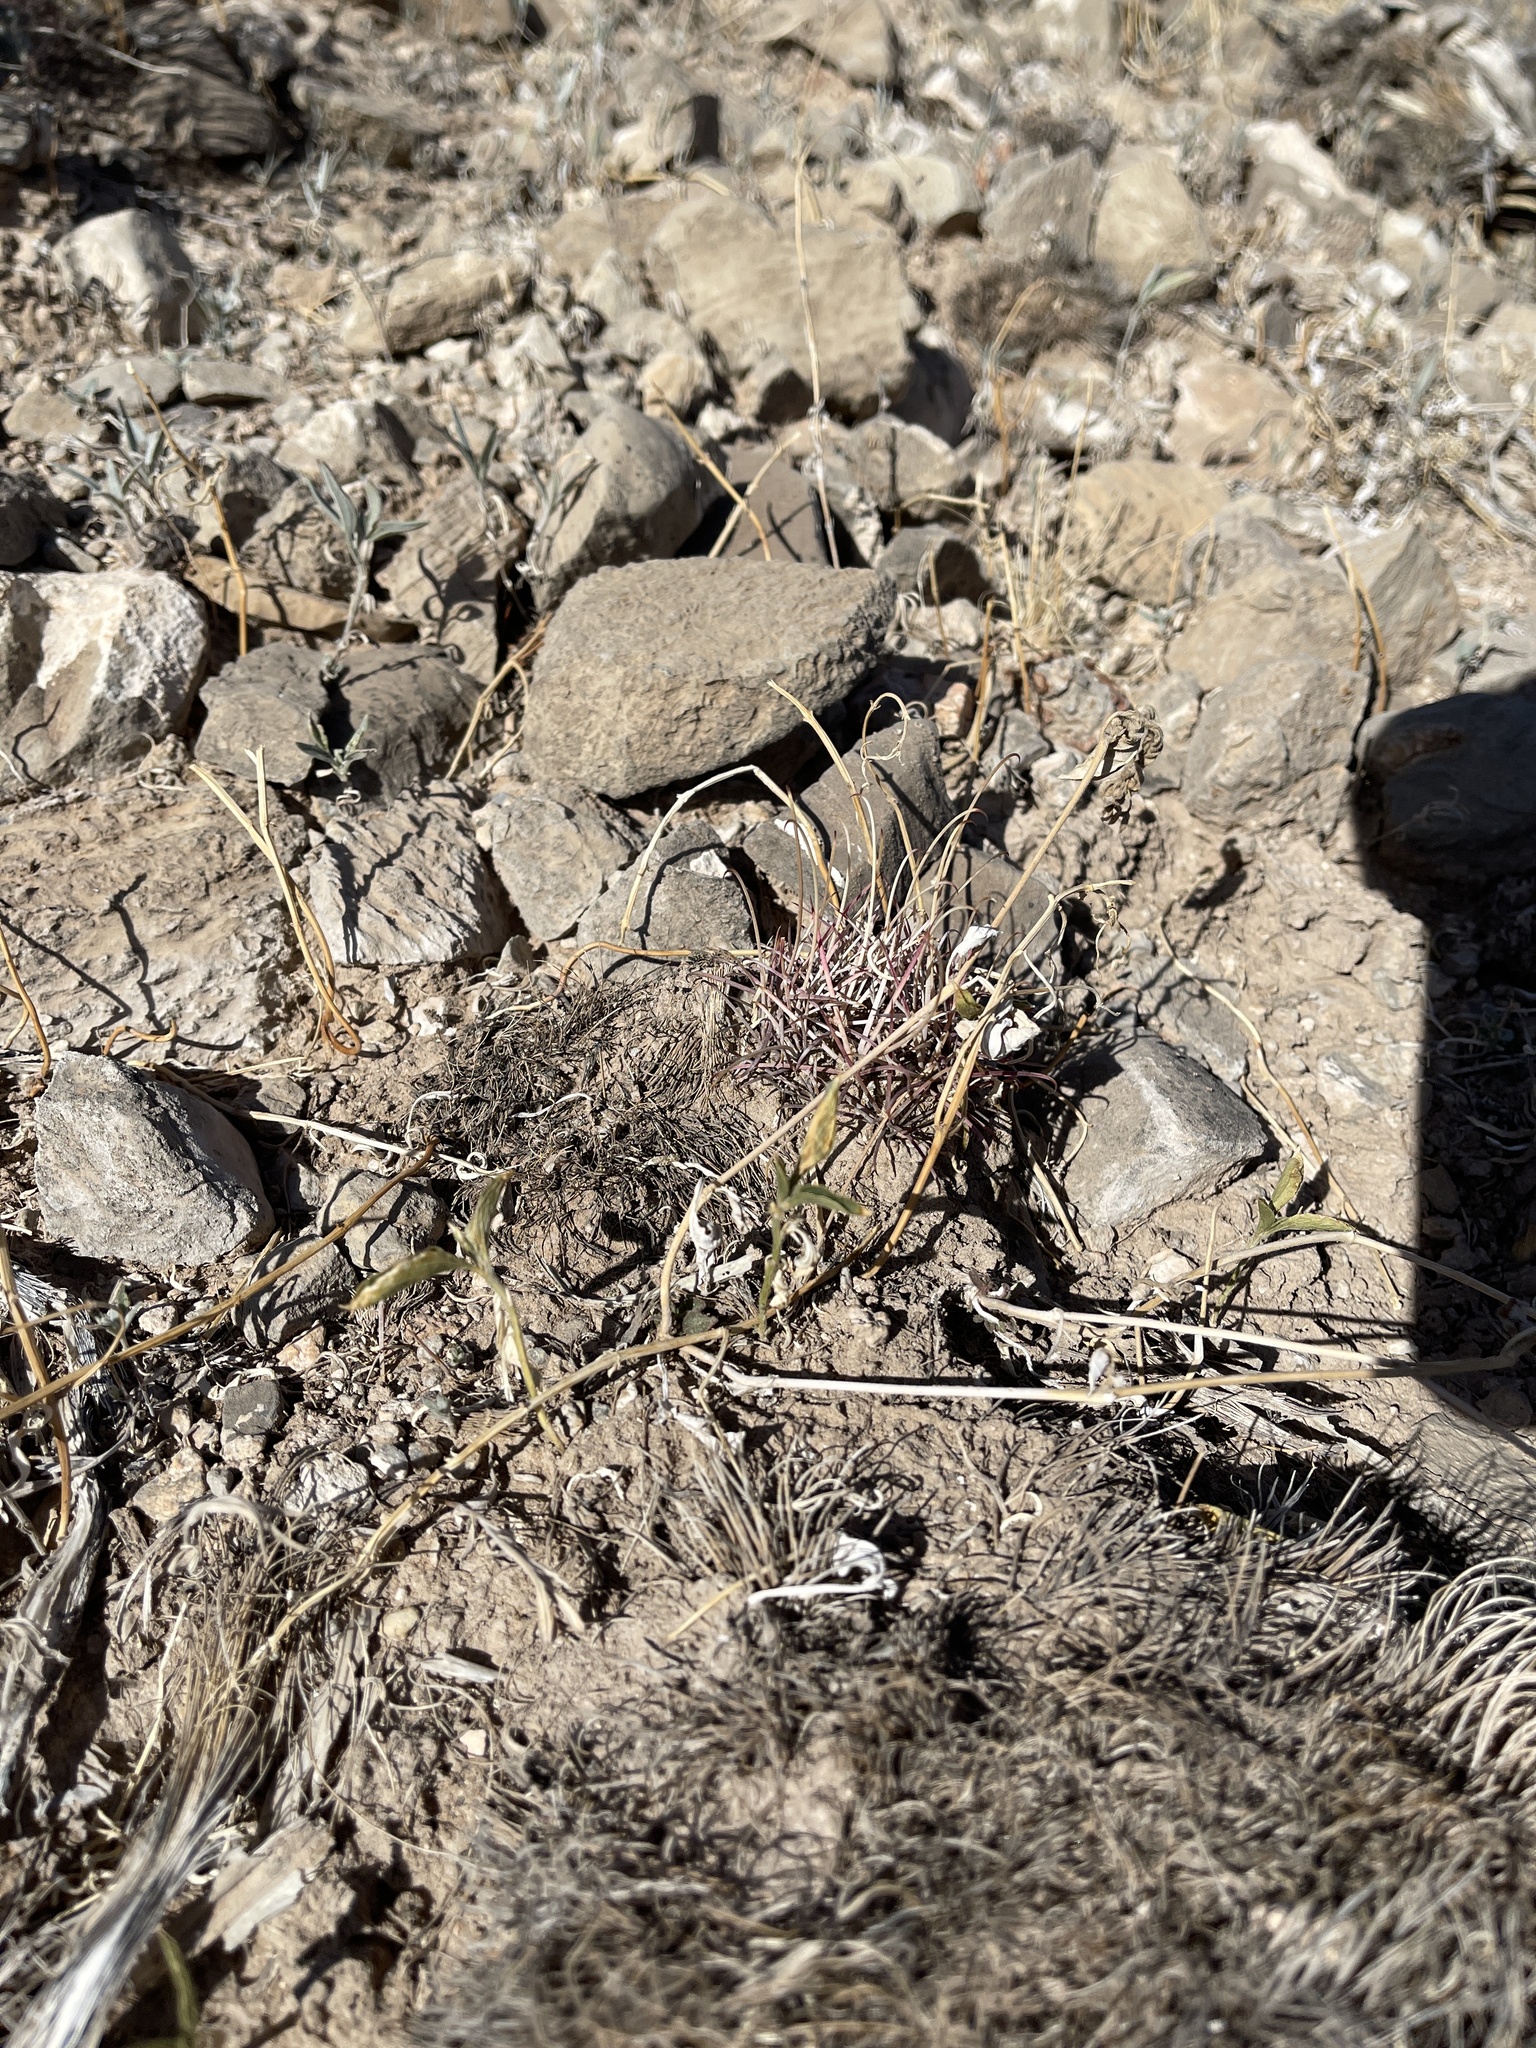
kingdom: Plantae
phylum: Tracheophyta
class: Magnoliopsida
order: Caryophyllales
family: Cactaceae
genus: Ferocactus
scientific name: Ferocactus uncinatus
